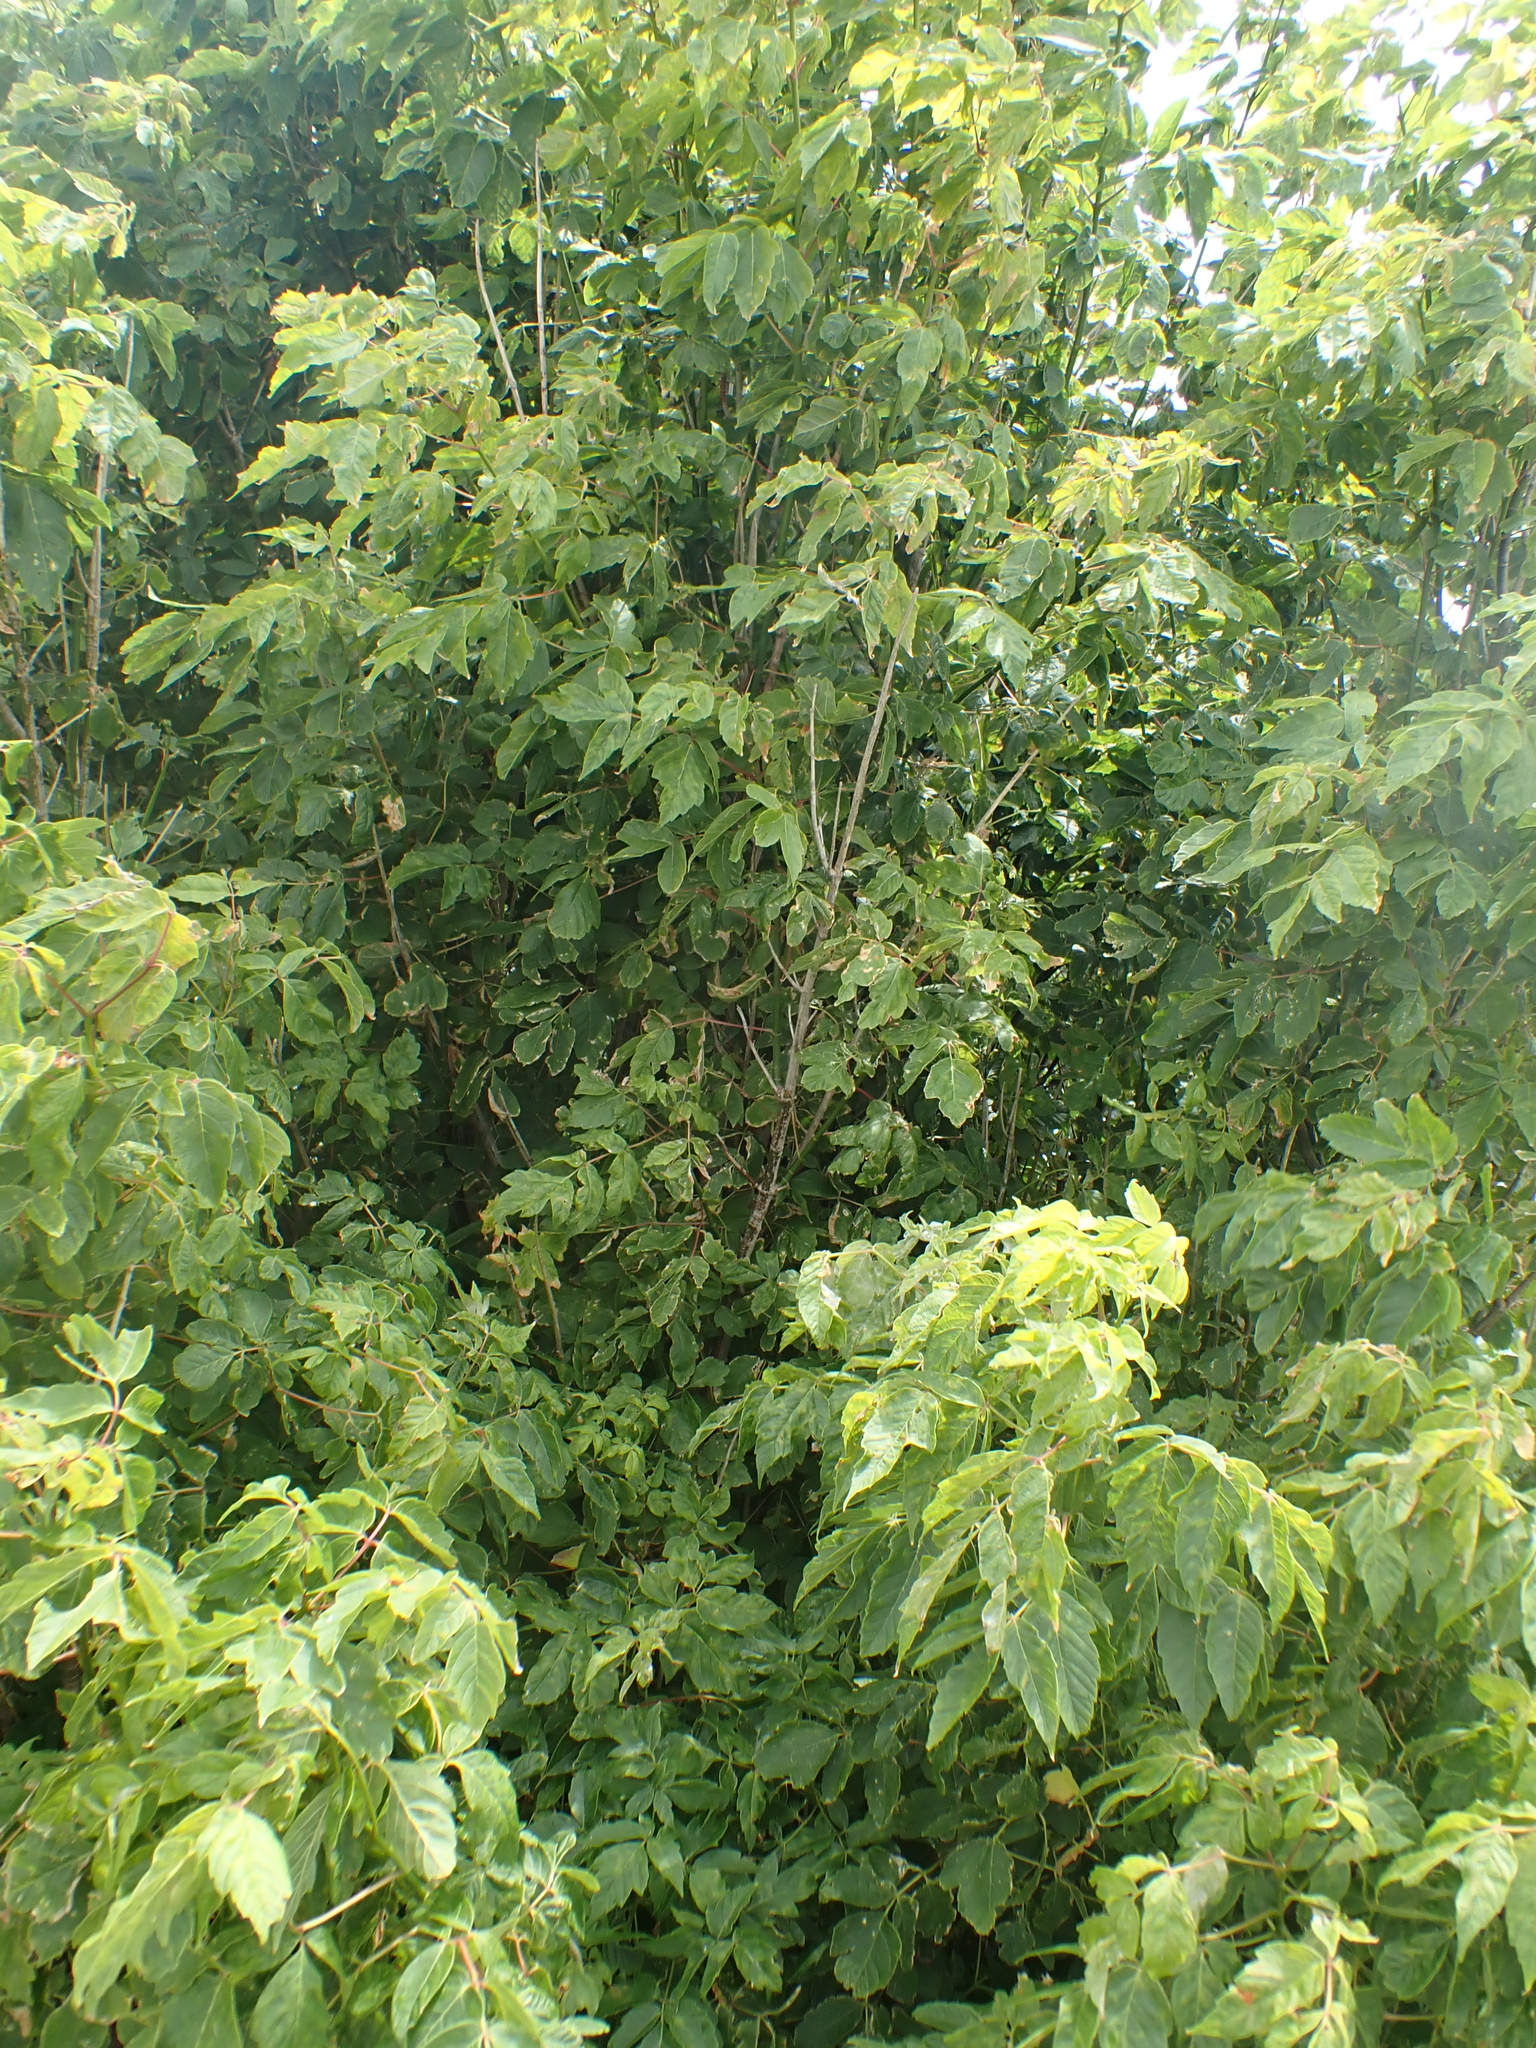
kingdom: Plantae
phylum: Tracheophyta
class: Magnoliopsida
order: Sapindales
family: Sapindaceae
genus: Acer
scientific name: Acer negundo
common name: Ashleaf maple
